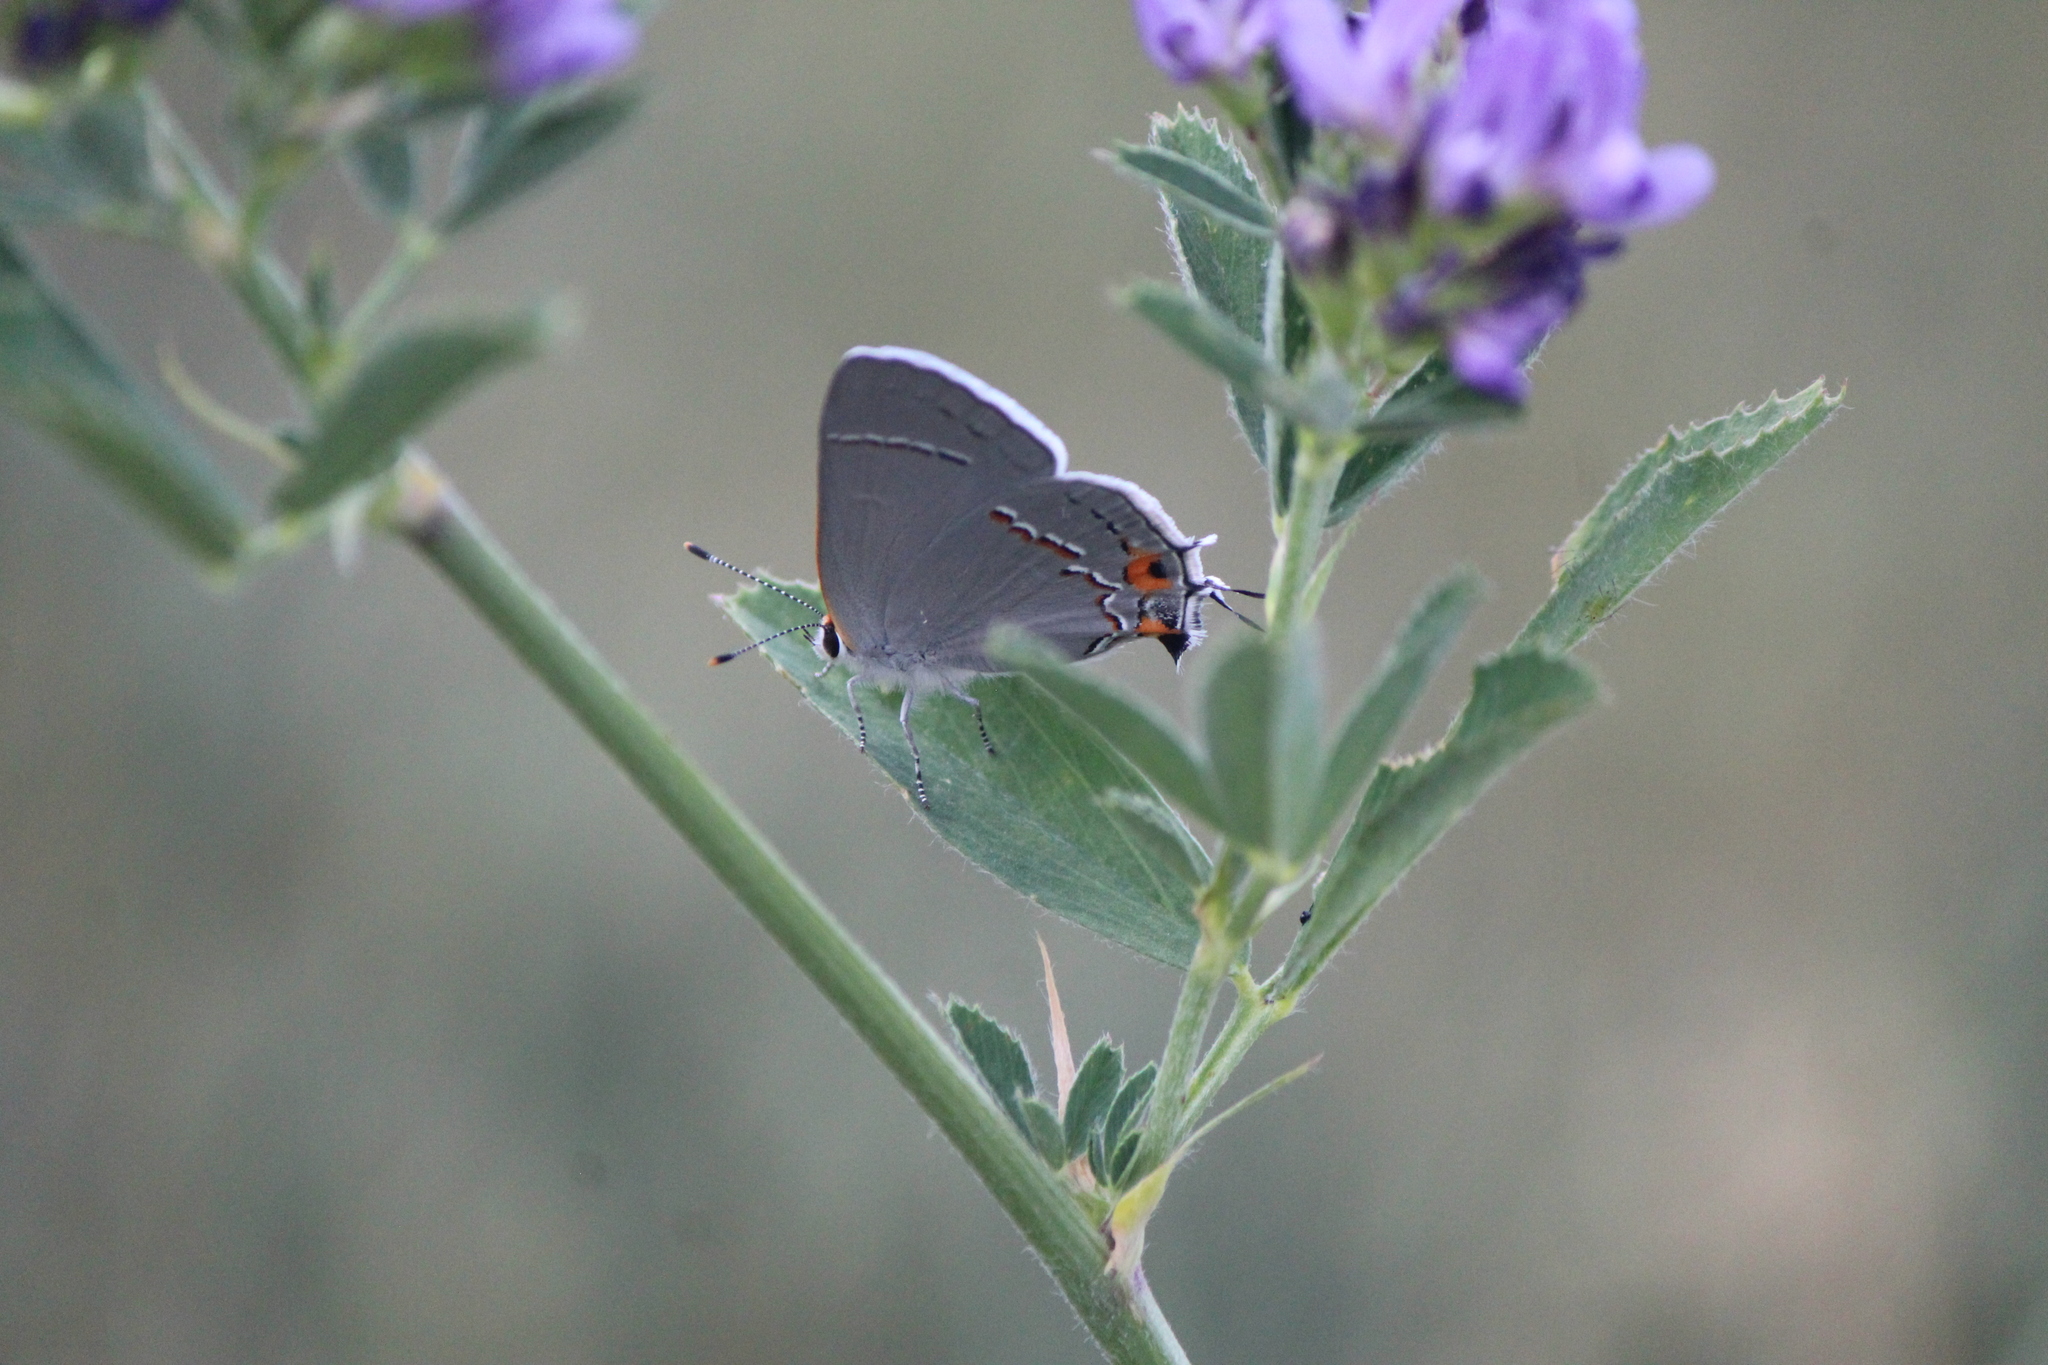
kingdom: Animalia
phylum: Arthropoda
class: Insecta
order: Lepidoptera
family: Lycaenidae
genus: Strymon
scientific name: Strymon melinus
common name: Gray hairstreak
